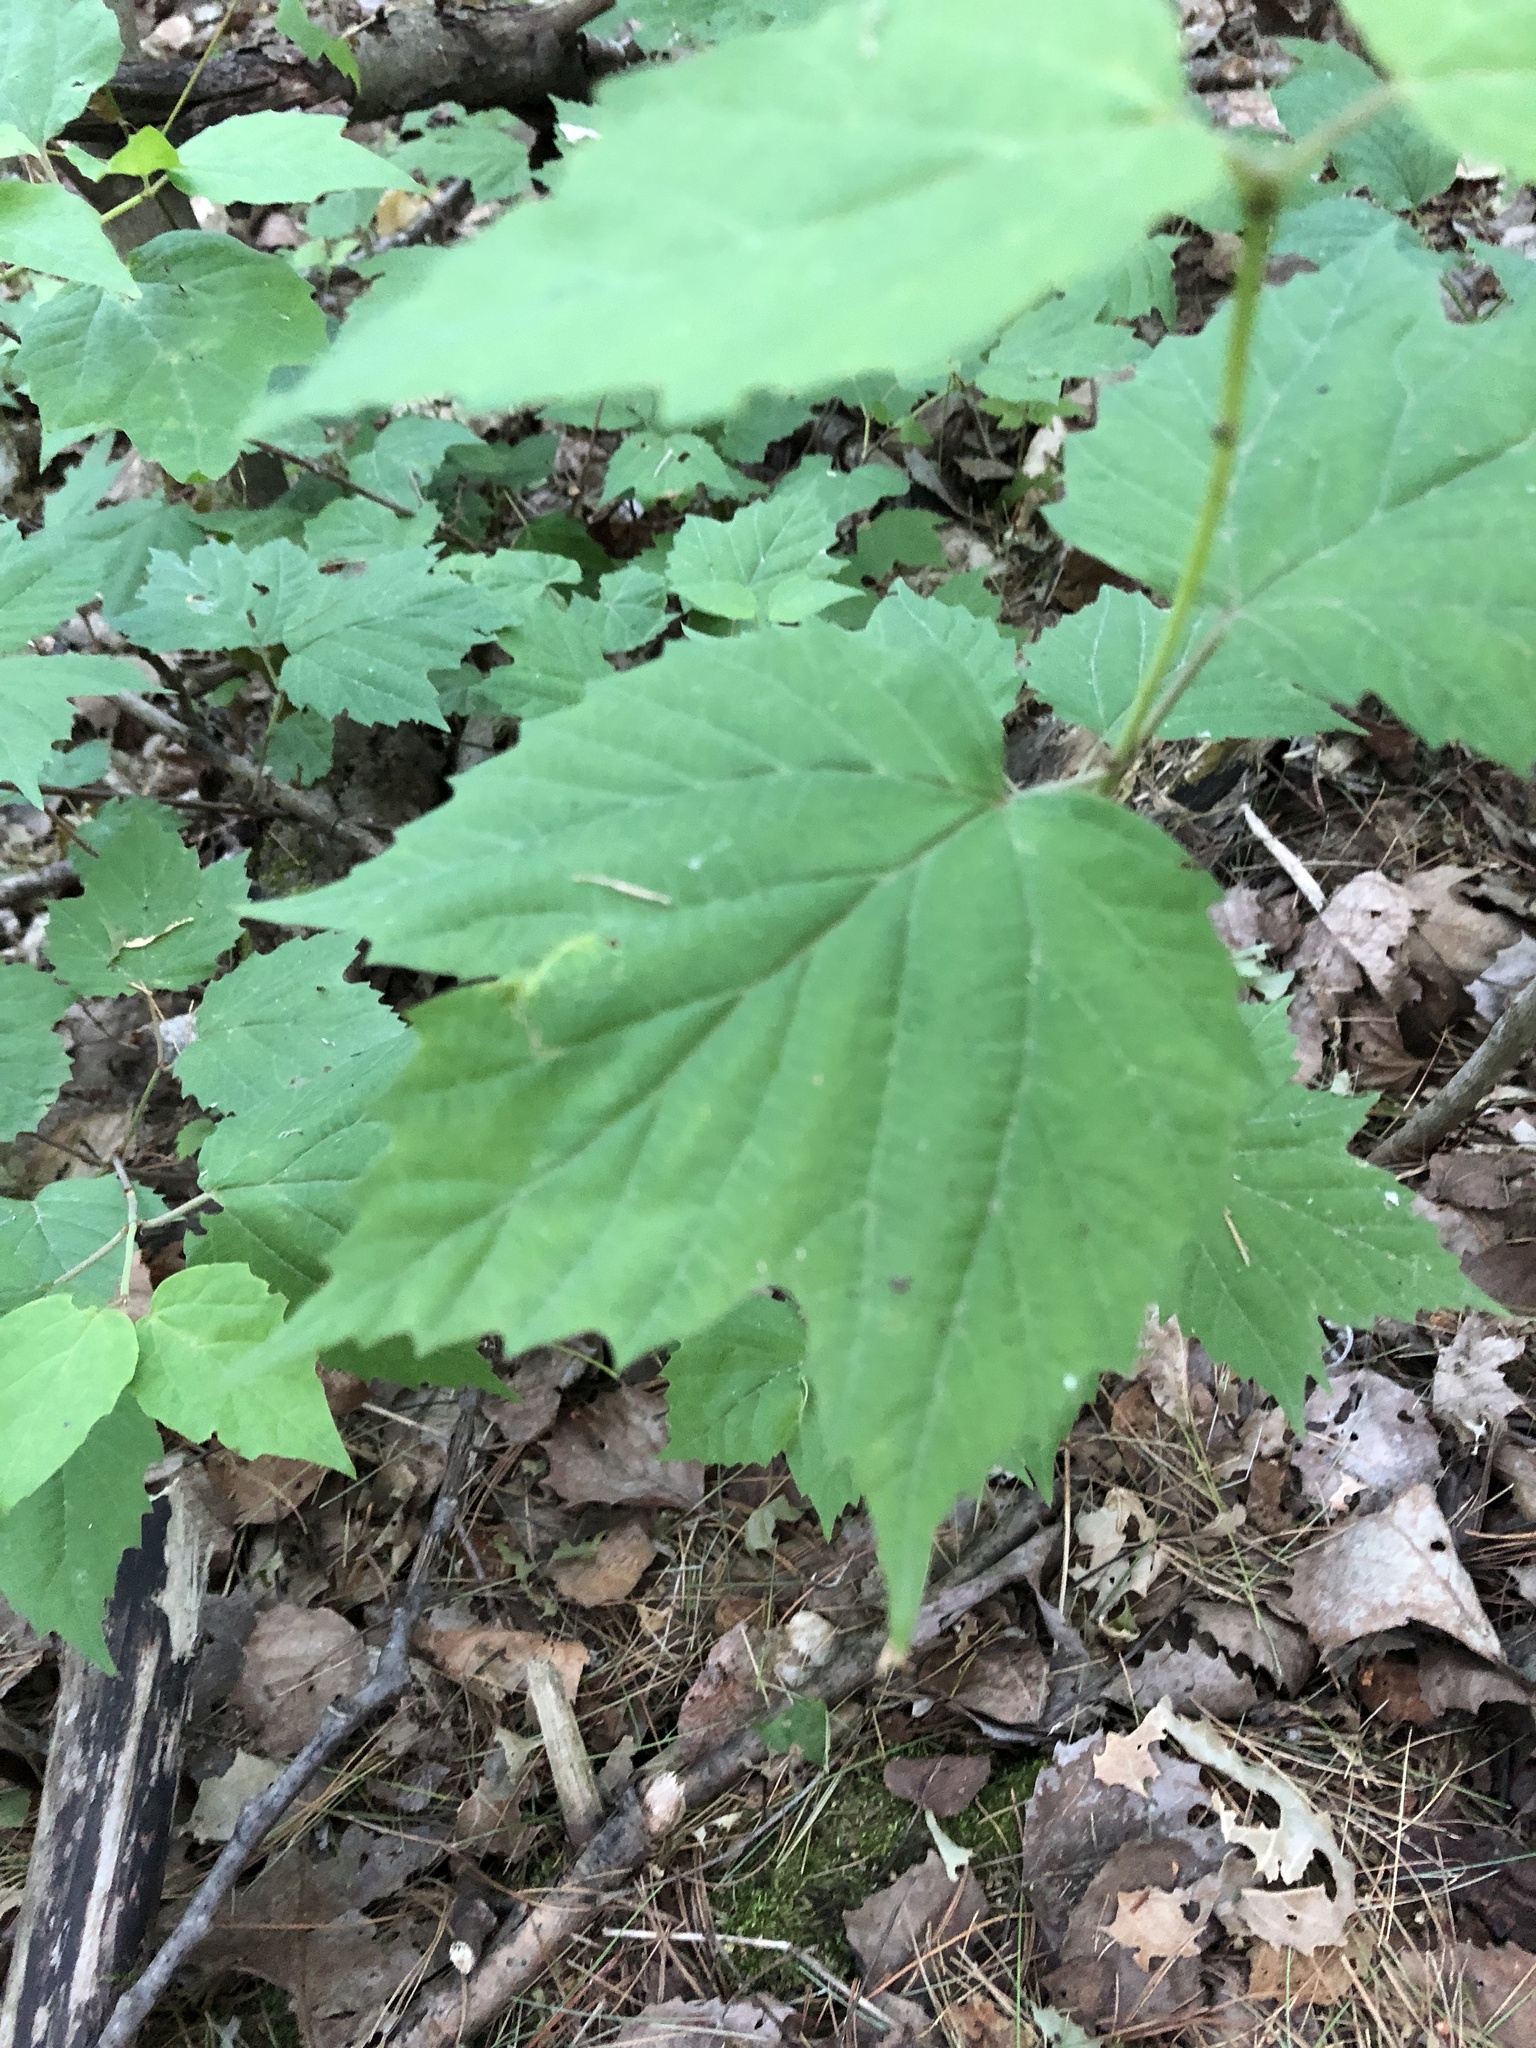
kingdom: Plantae
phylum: Tracheophyta
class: Magnoliopsida
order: Dipsacales
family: Viburnaceae
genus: Viburnum
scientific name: Viburnum acerifolium
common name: Dockmackie
